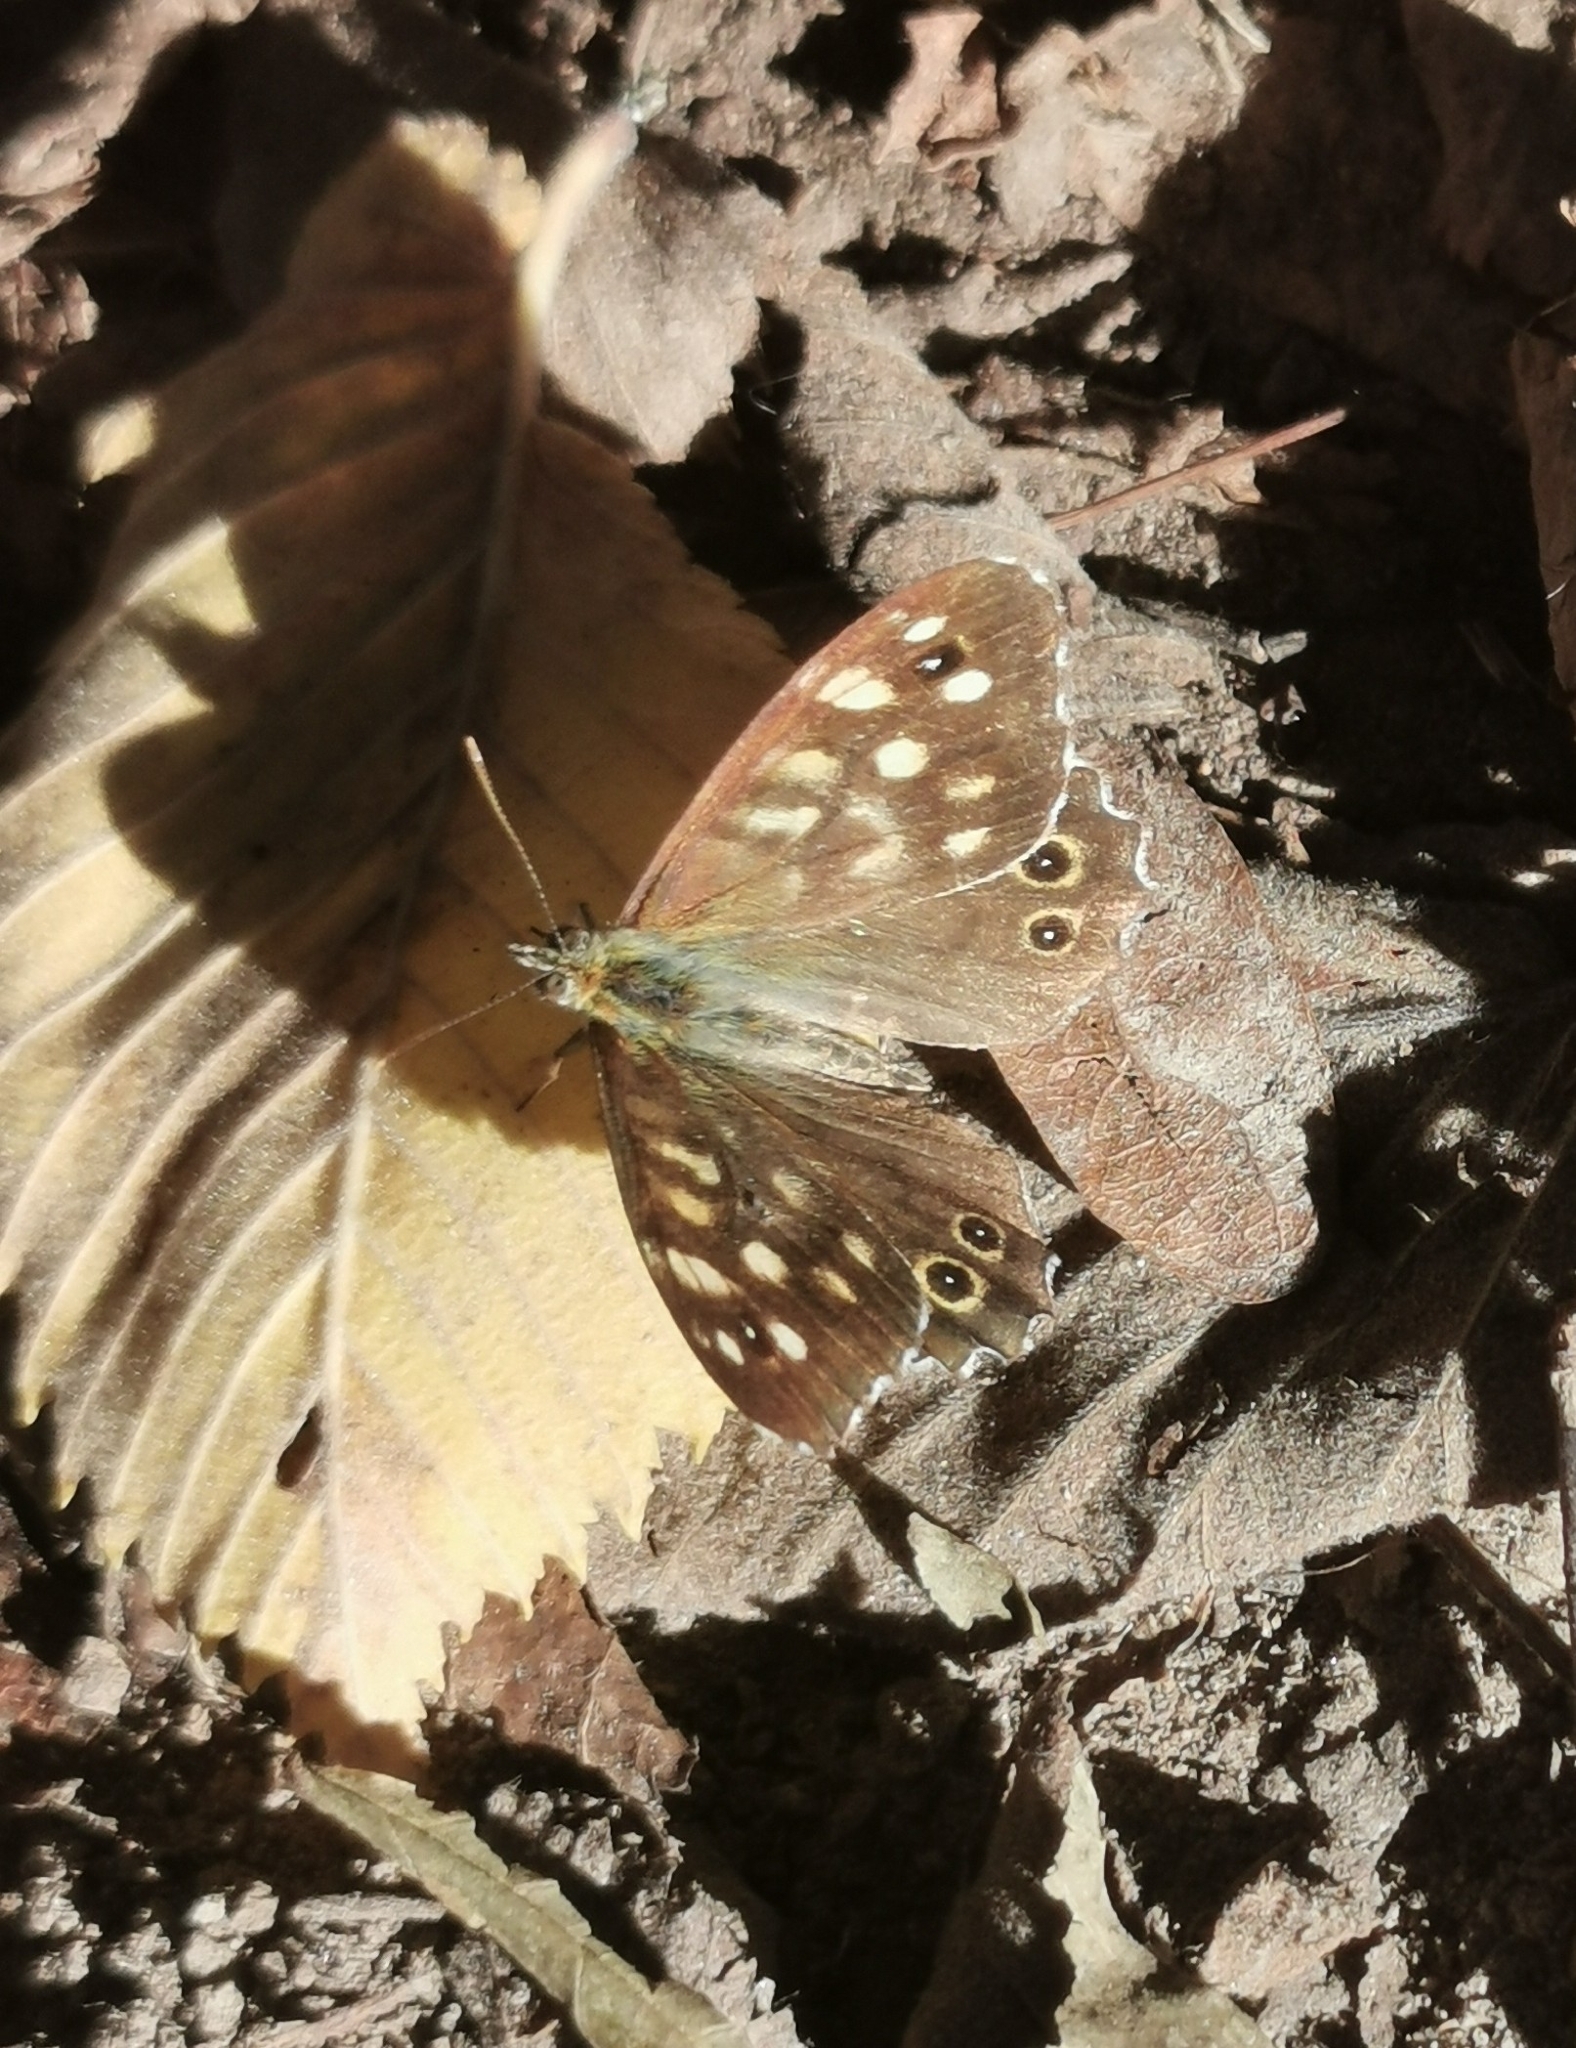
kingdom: Animalia
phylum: Arthropoda
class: Insecta
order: Lepidoptera
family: Nymphalidae
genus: Pararge
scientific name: Pararge aegeria
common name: Speckled wood
